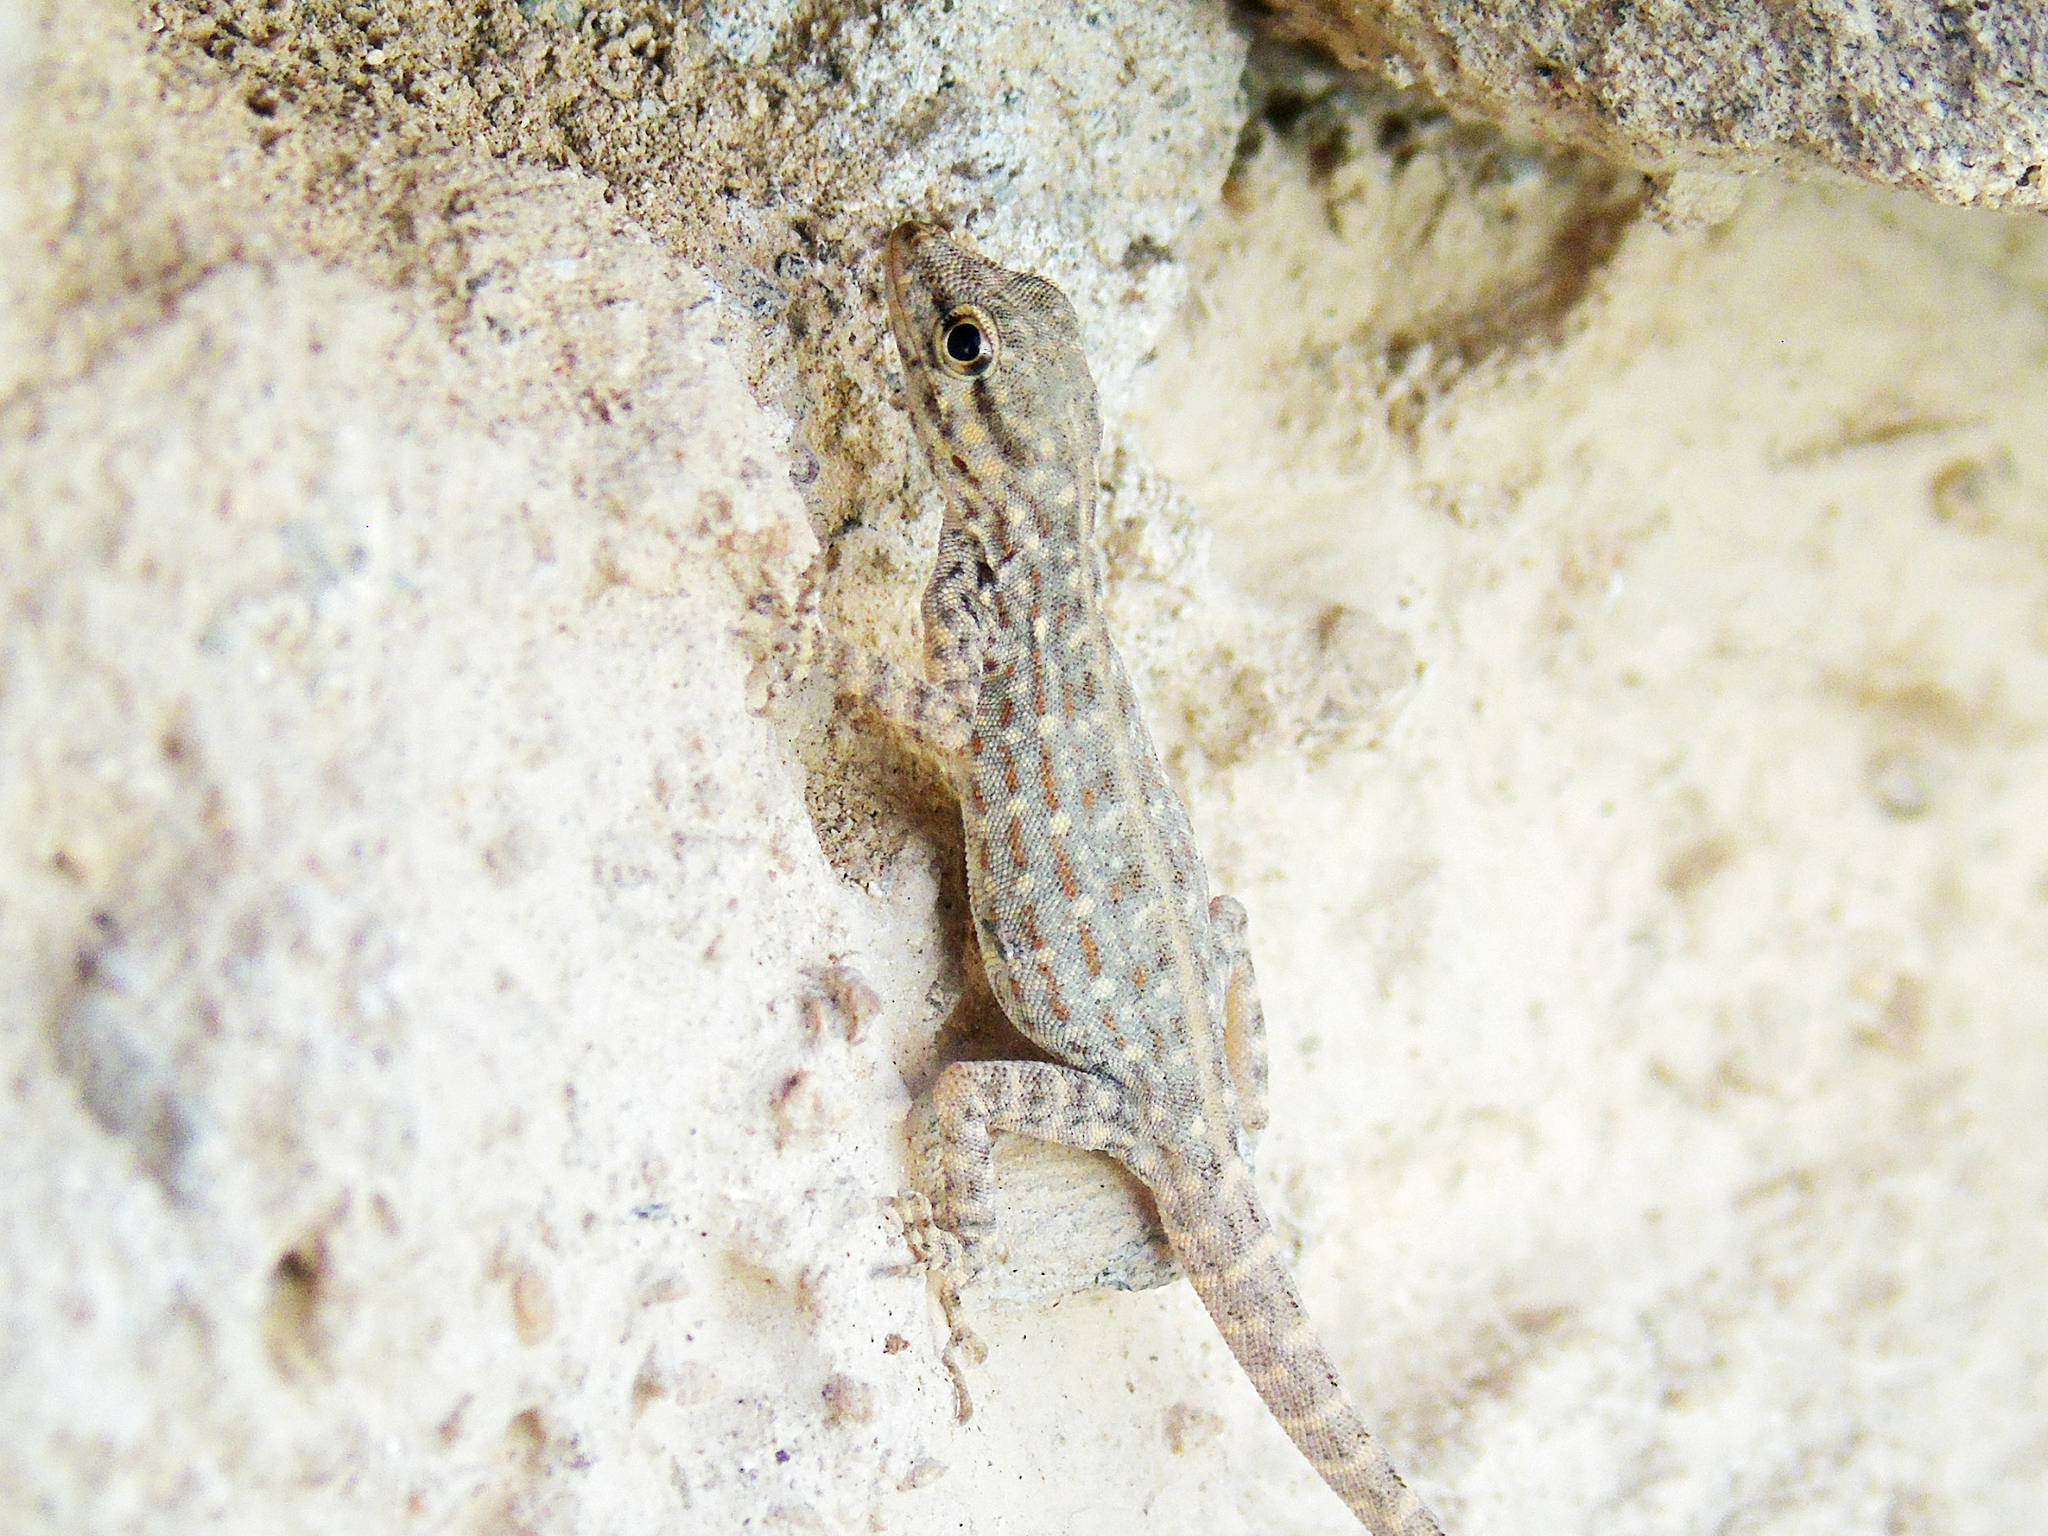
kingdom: Animalia
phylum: Chordata
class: Squamata
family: Sphaerodactylidae
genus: Pristurus
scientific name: Pristurus rupestris
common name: Blanford’s semaphore gecko
